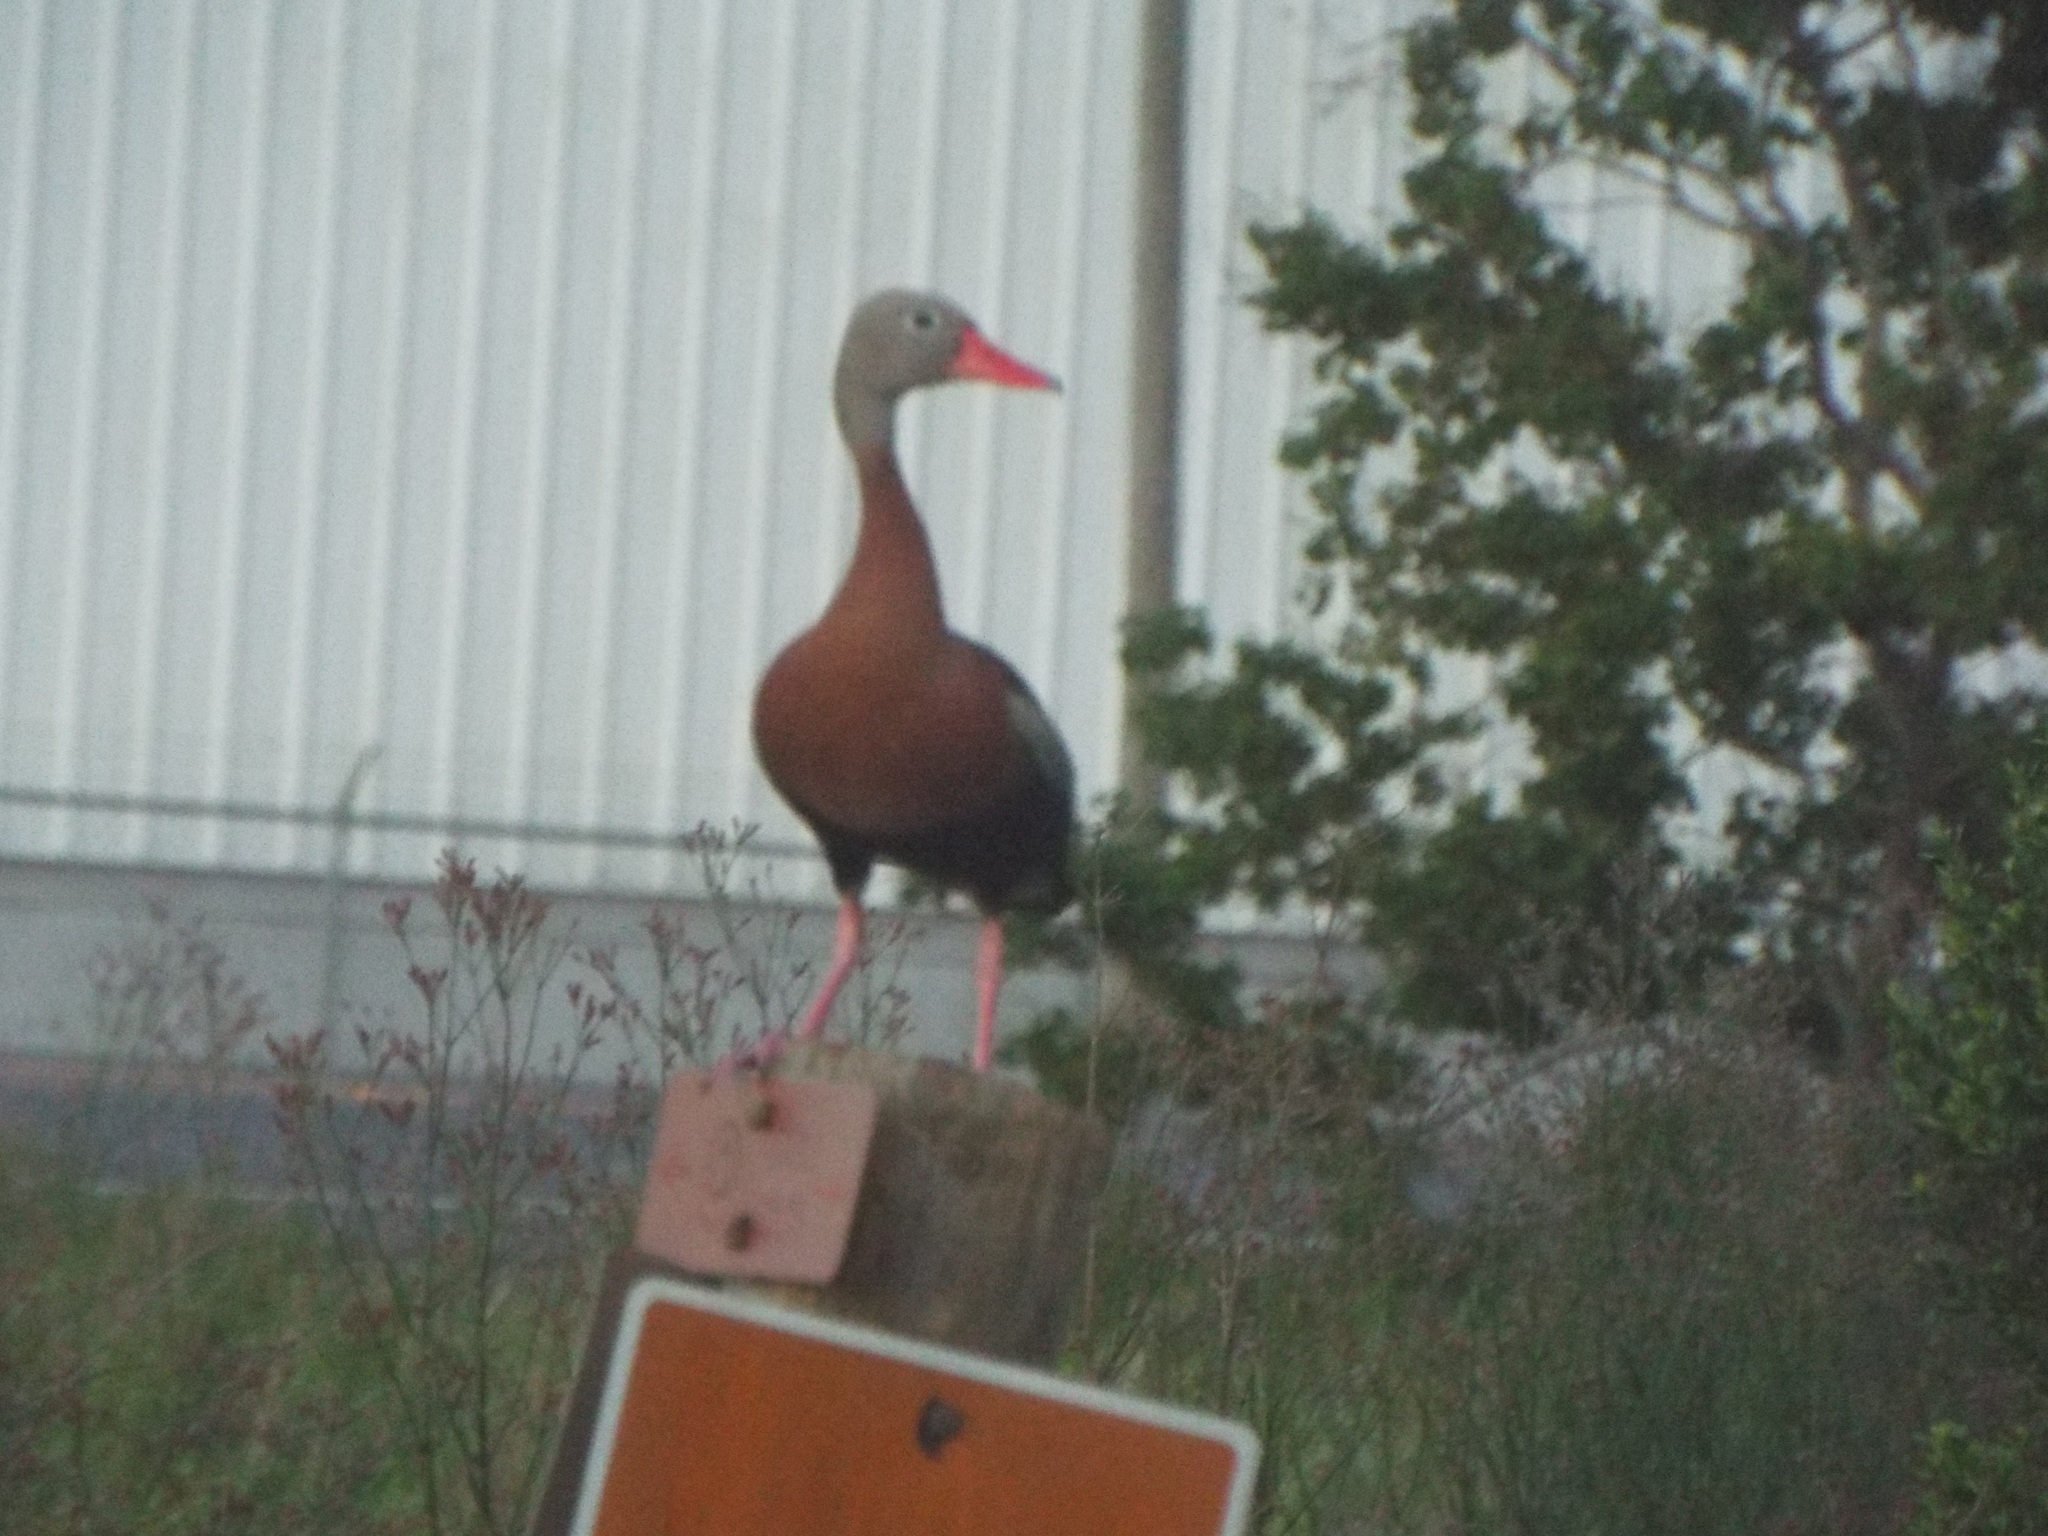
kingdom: Animalia
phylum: Chordata
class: Aves
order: Anseriformes
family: Anatidae
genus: Dendrocygna
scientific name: Dendrocygna autumnalis
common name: Black-bellied whistling duck
